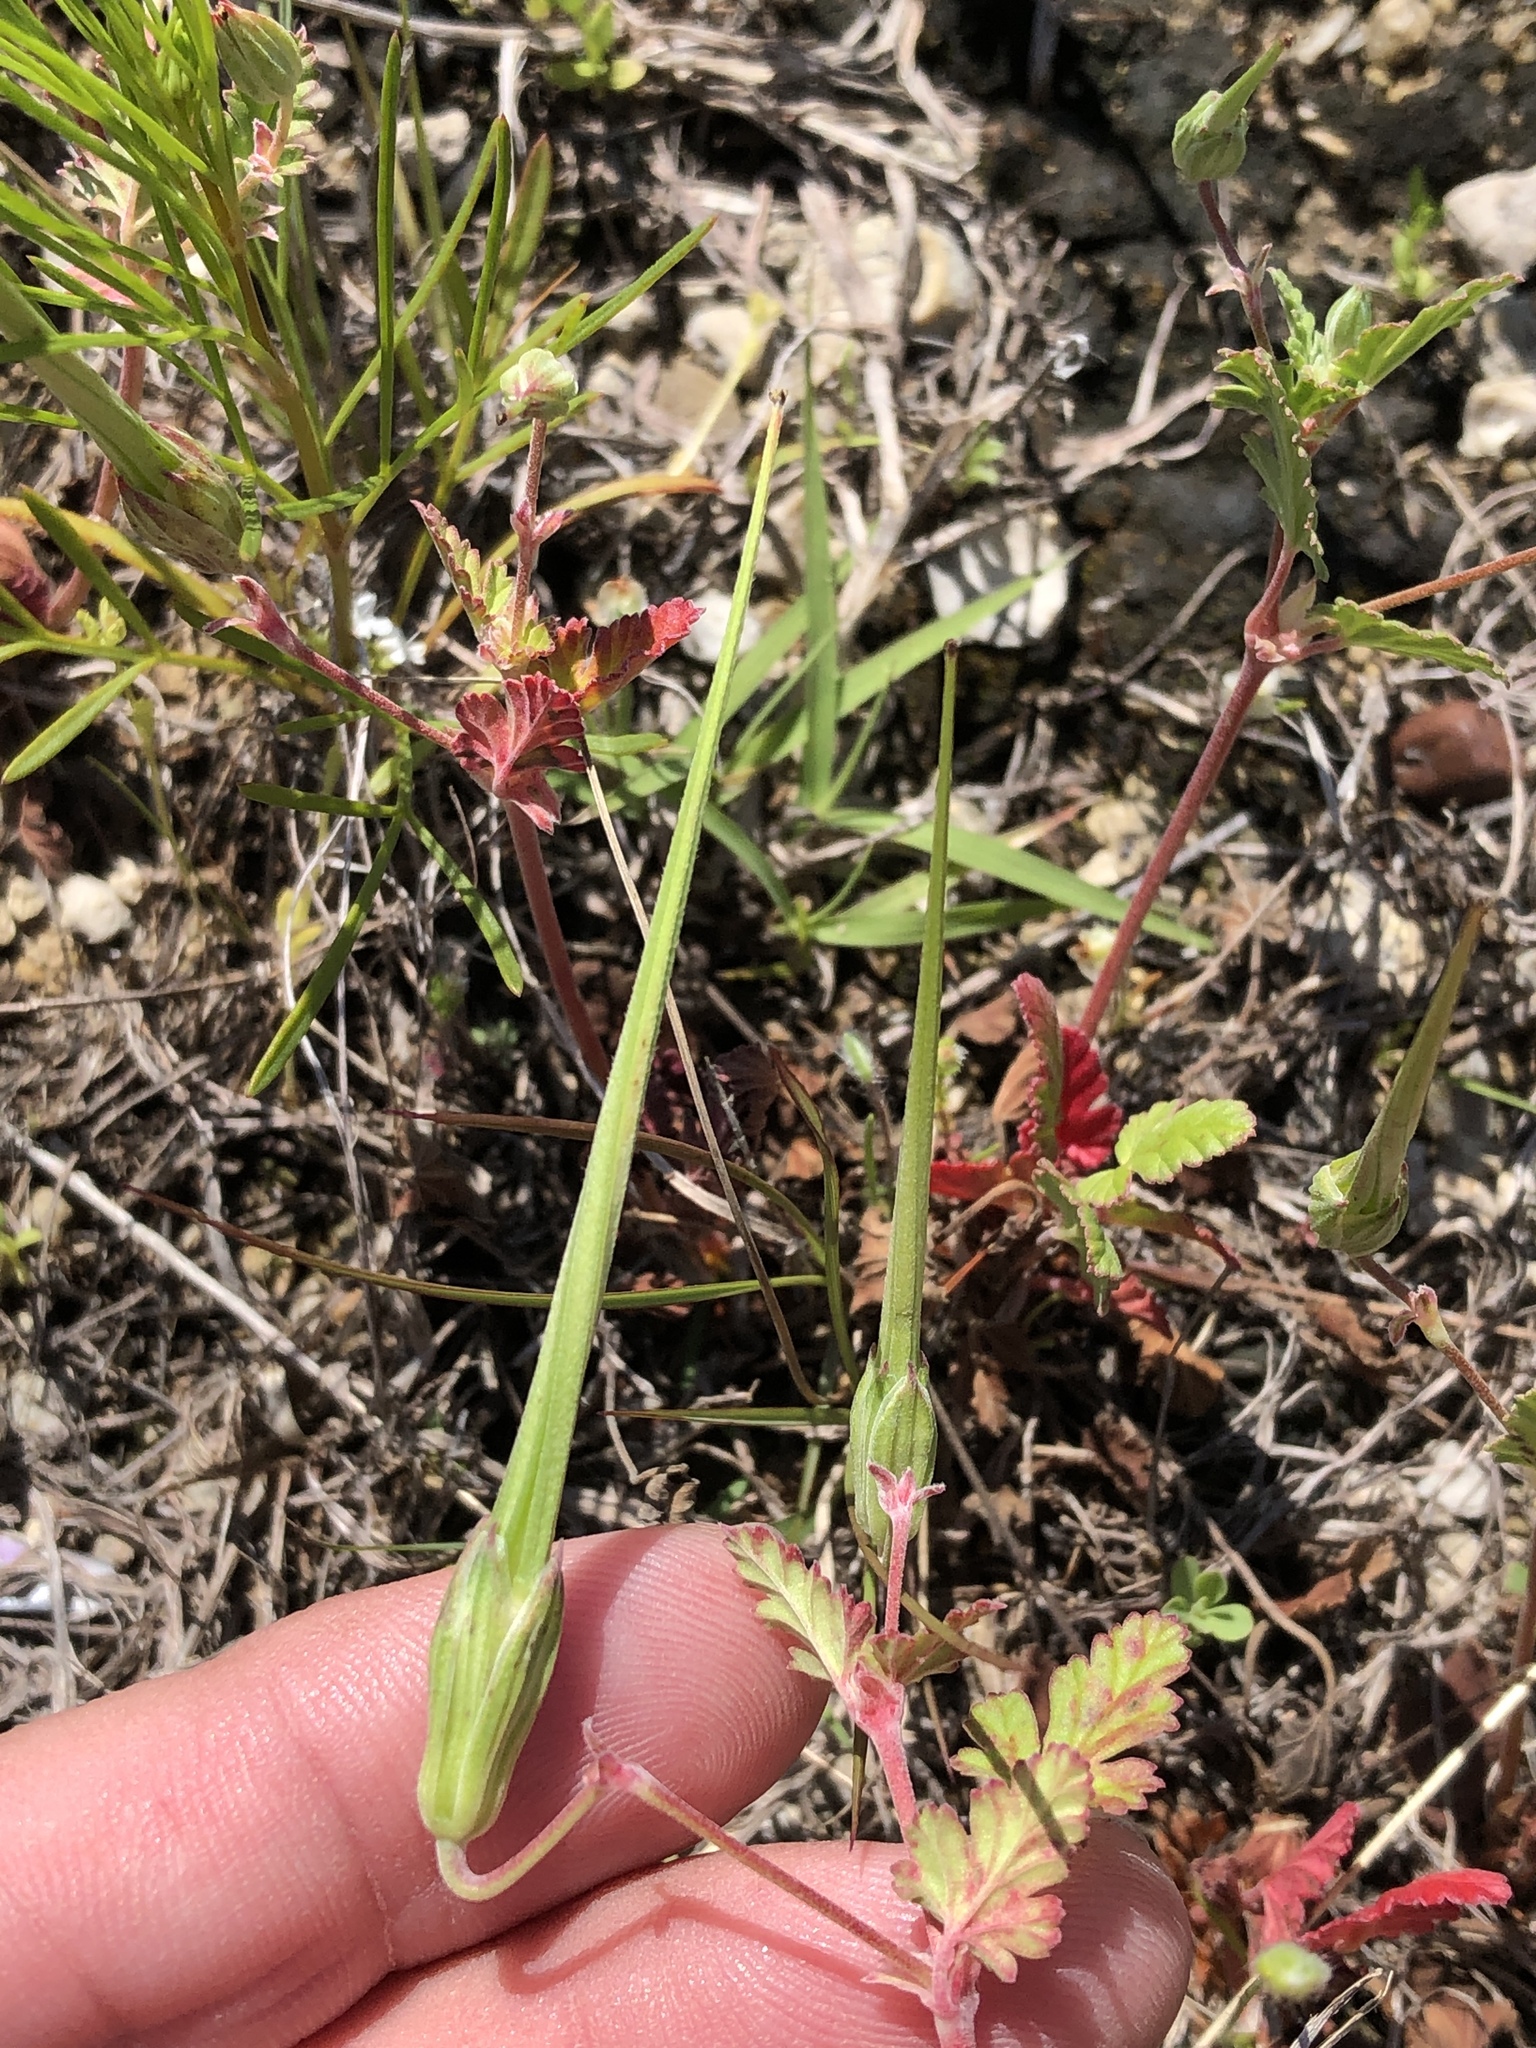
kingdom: Plantae
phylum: Tracheophyta
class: Magnoliopsida
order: Geraniales
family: Geraniaceae
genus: Erodium
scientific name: Erodium texanum
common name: Texas stork's-bill
